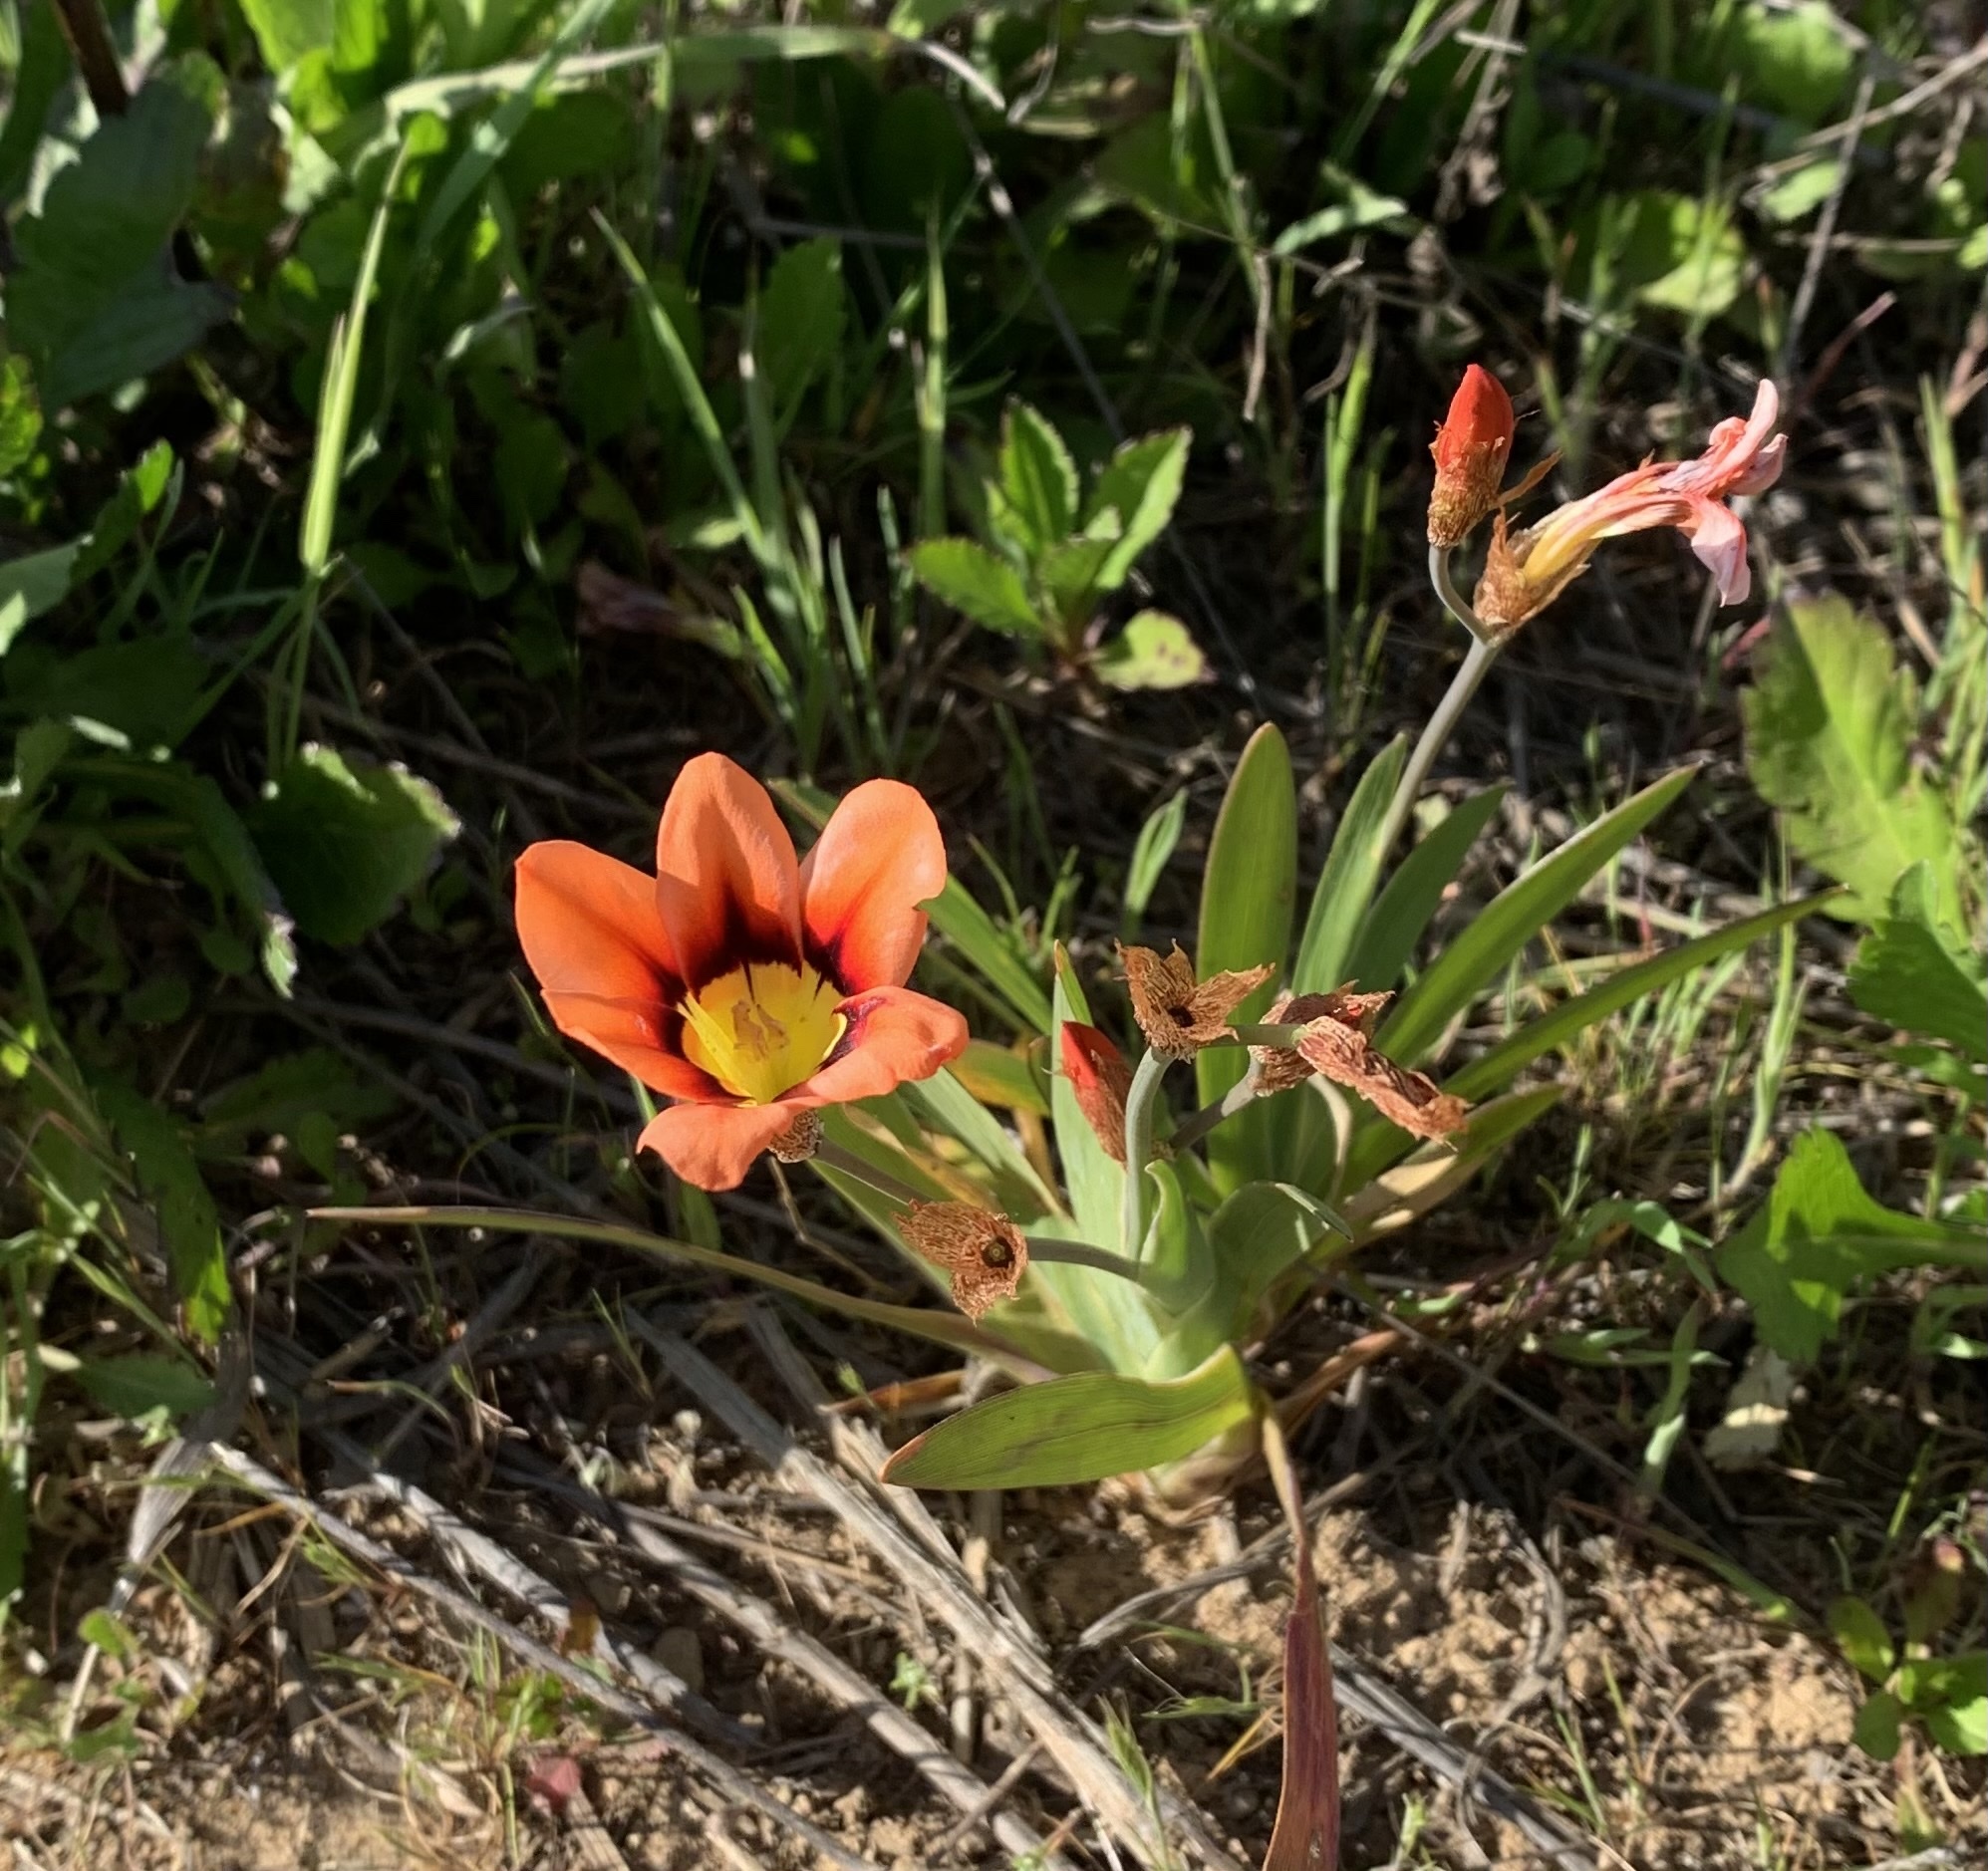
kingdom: Plantae
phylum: Tracheophyta
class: Liliopsida
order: Asparagales
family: Iridaceae
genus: Sparaxis
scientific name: Sparaxis tricolor
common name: Wandflower
